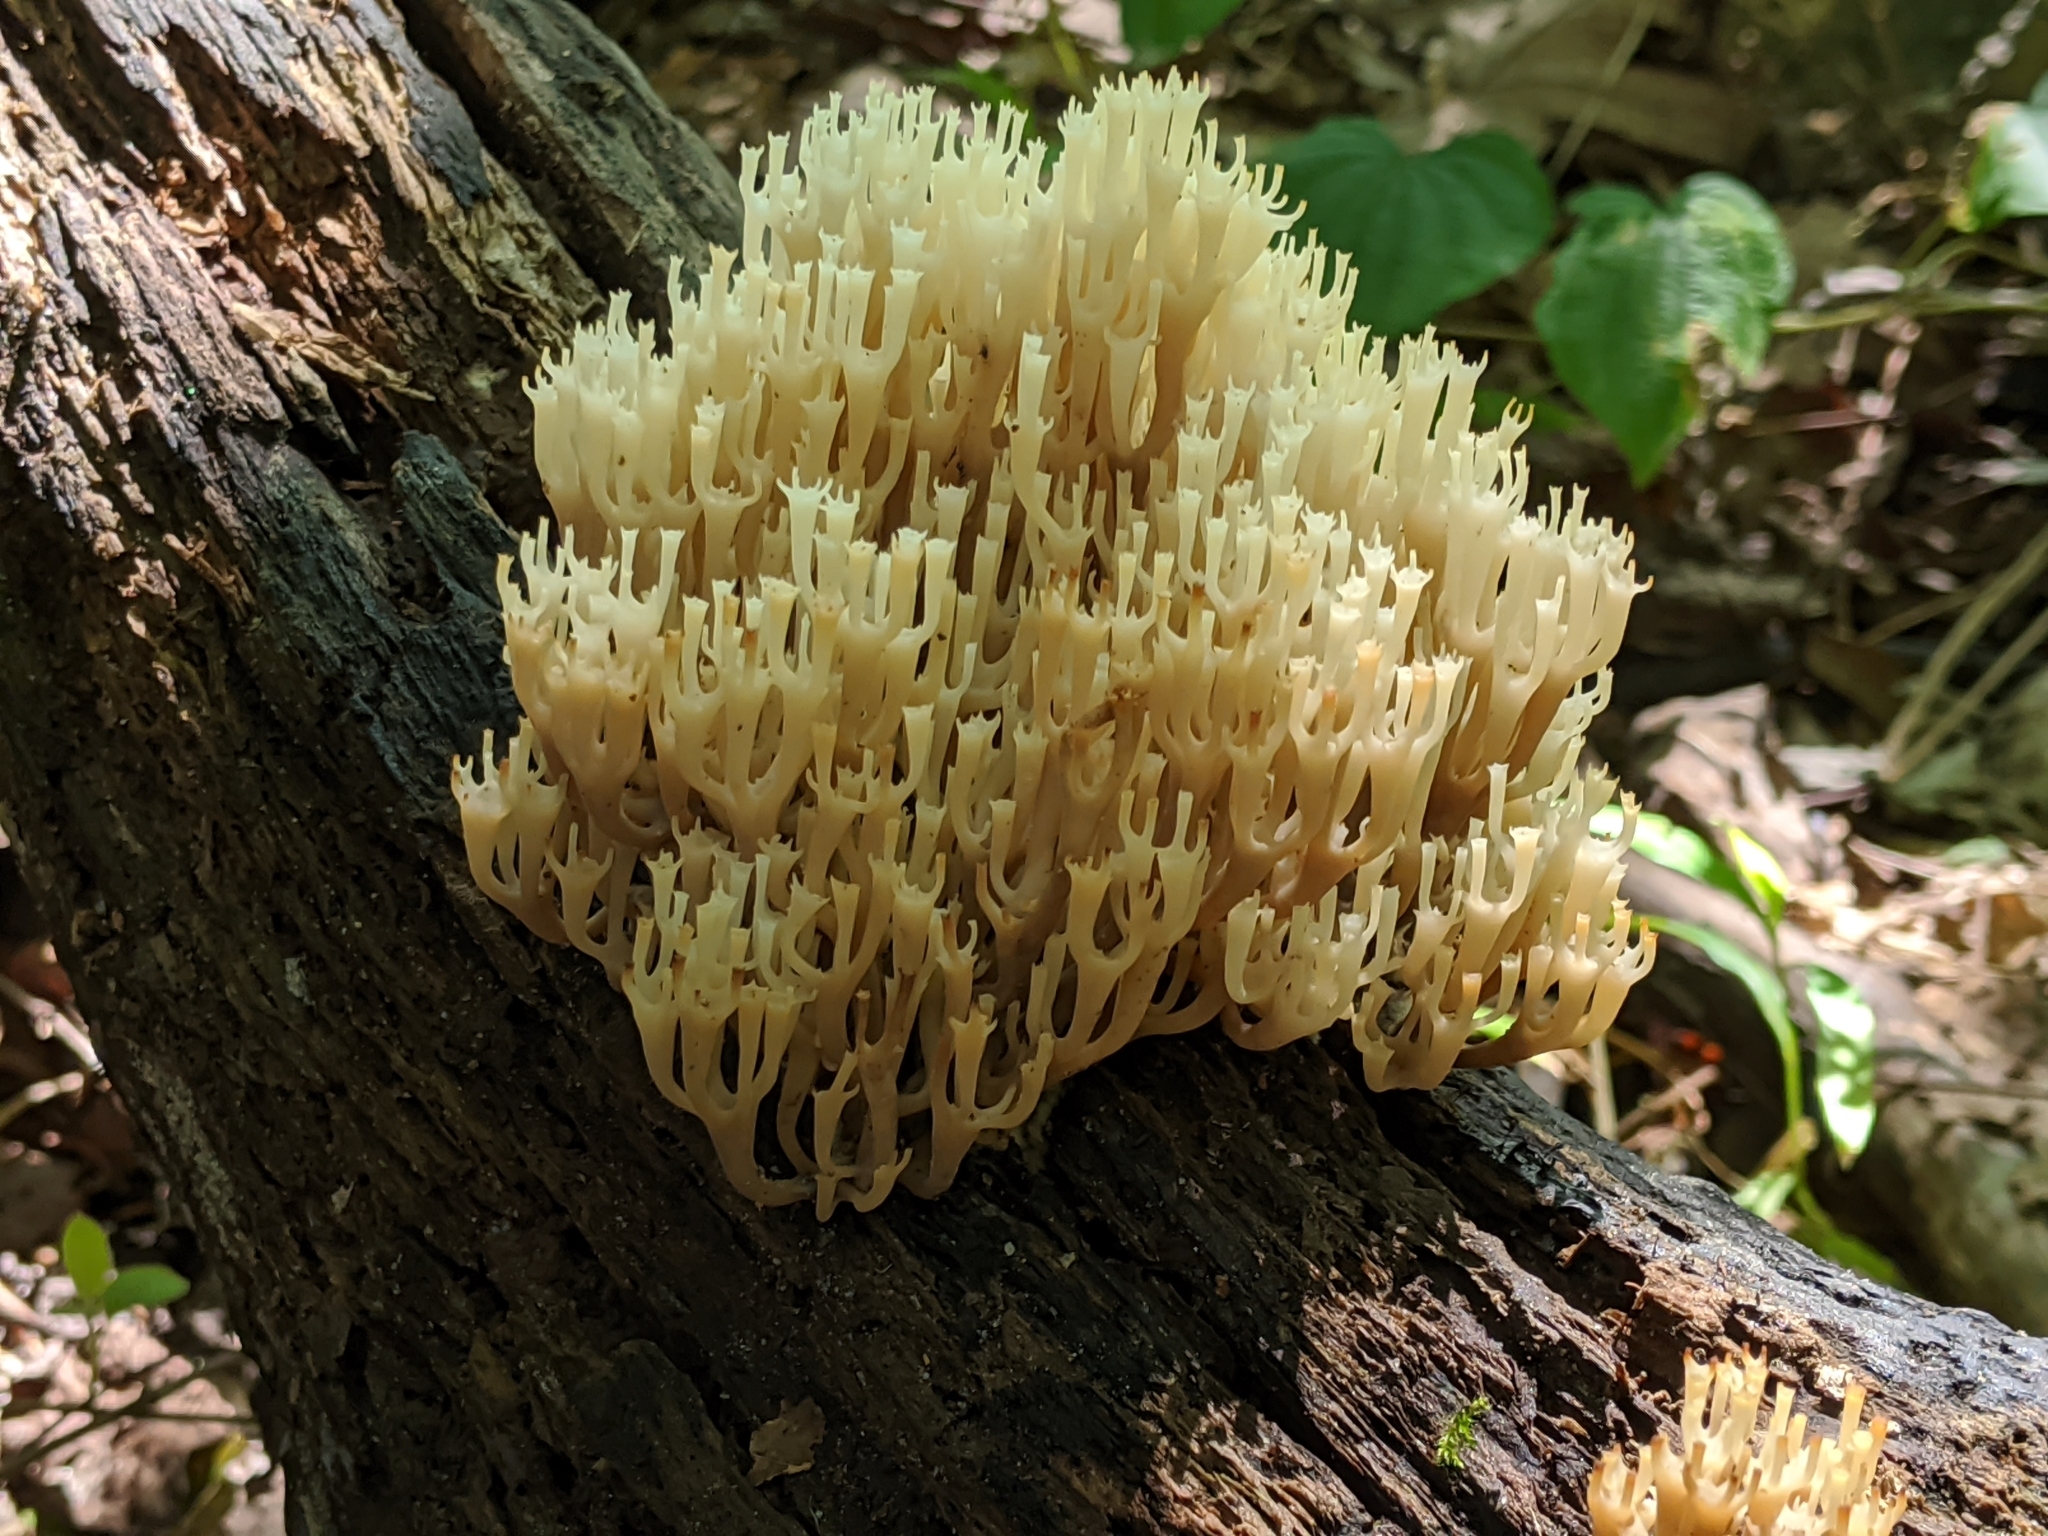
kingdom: Fungi
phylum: Basidiomycota
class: Agaricomycetes
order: Russulales
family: Auriscalpiaceae
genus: Artomyces
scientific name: Artomyces pyxidatus
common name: Crown-tipped coral fungus
